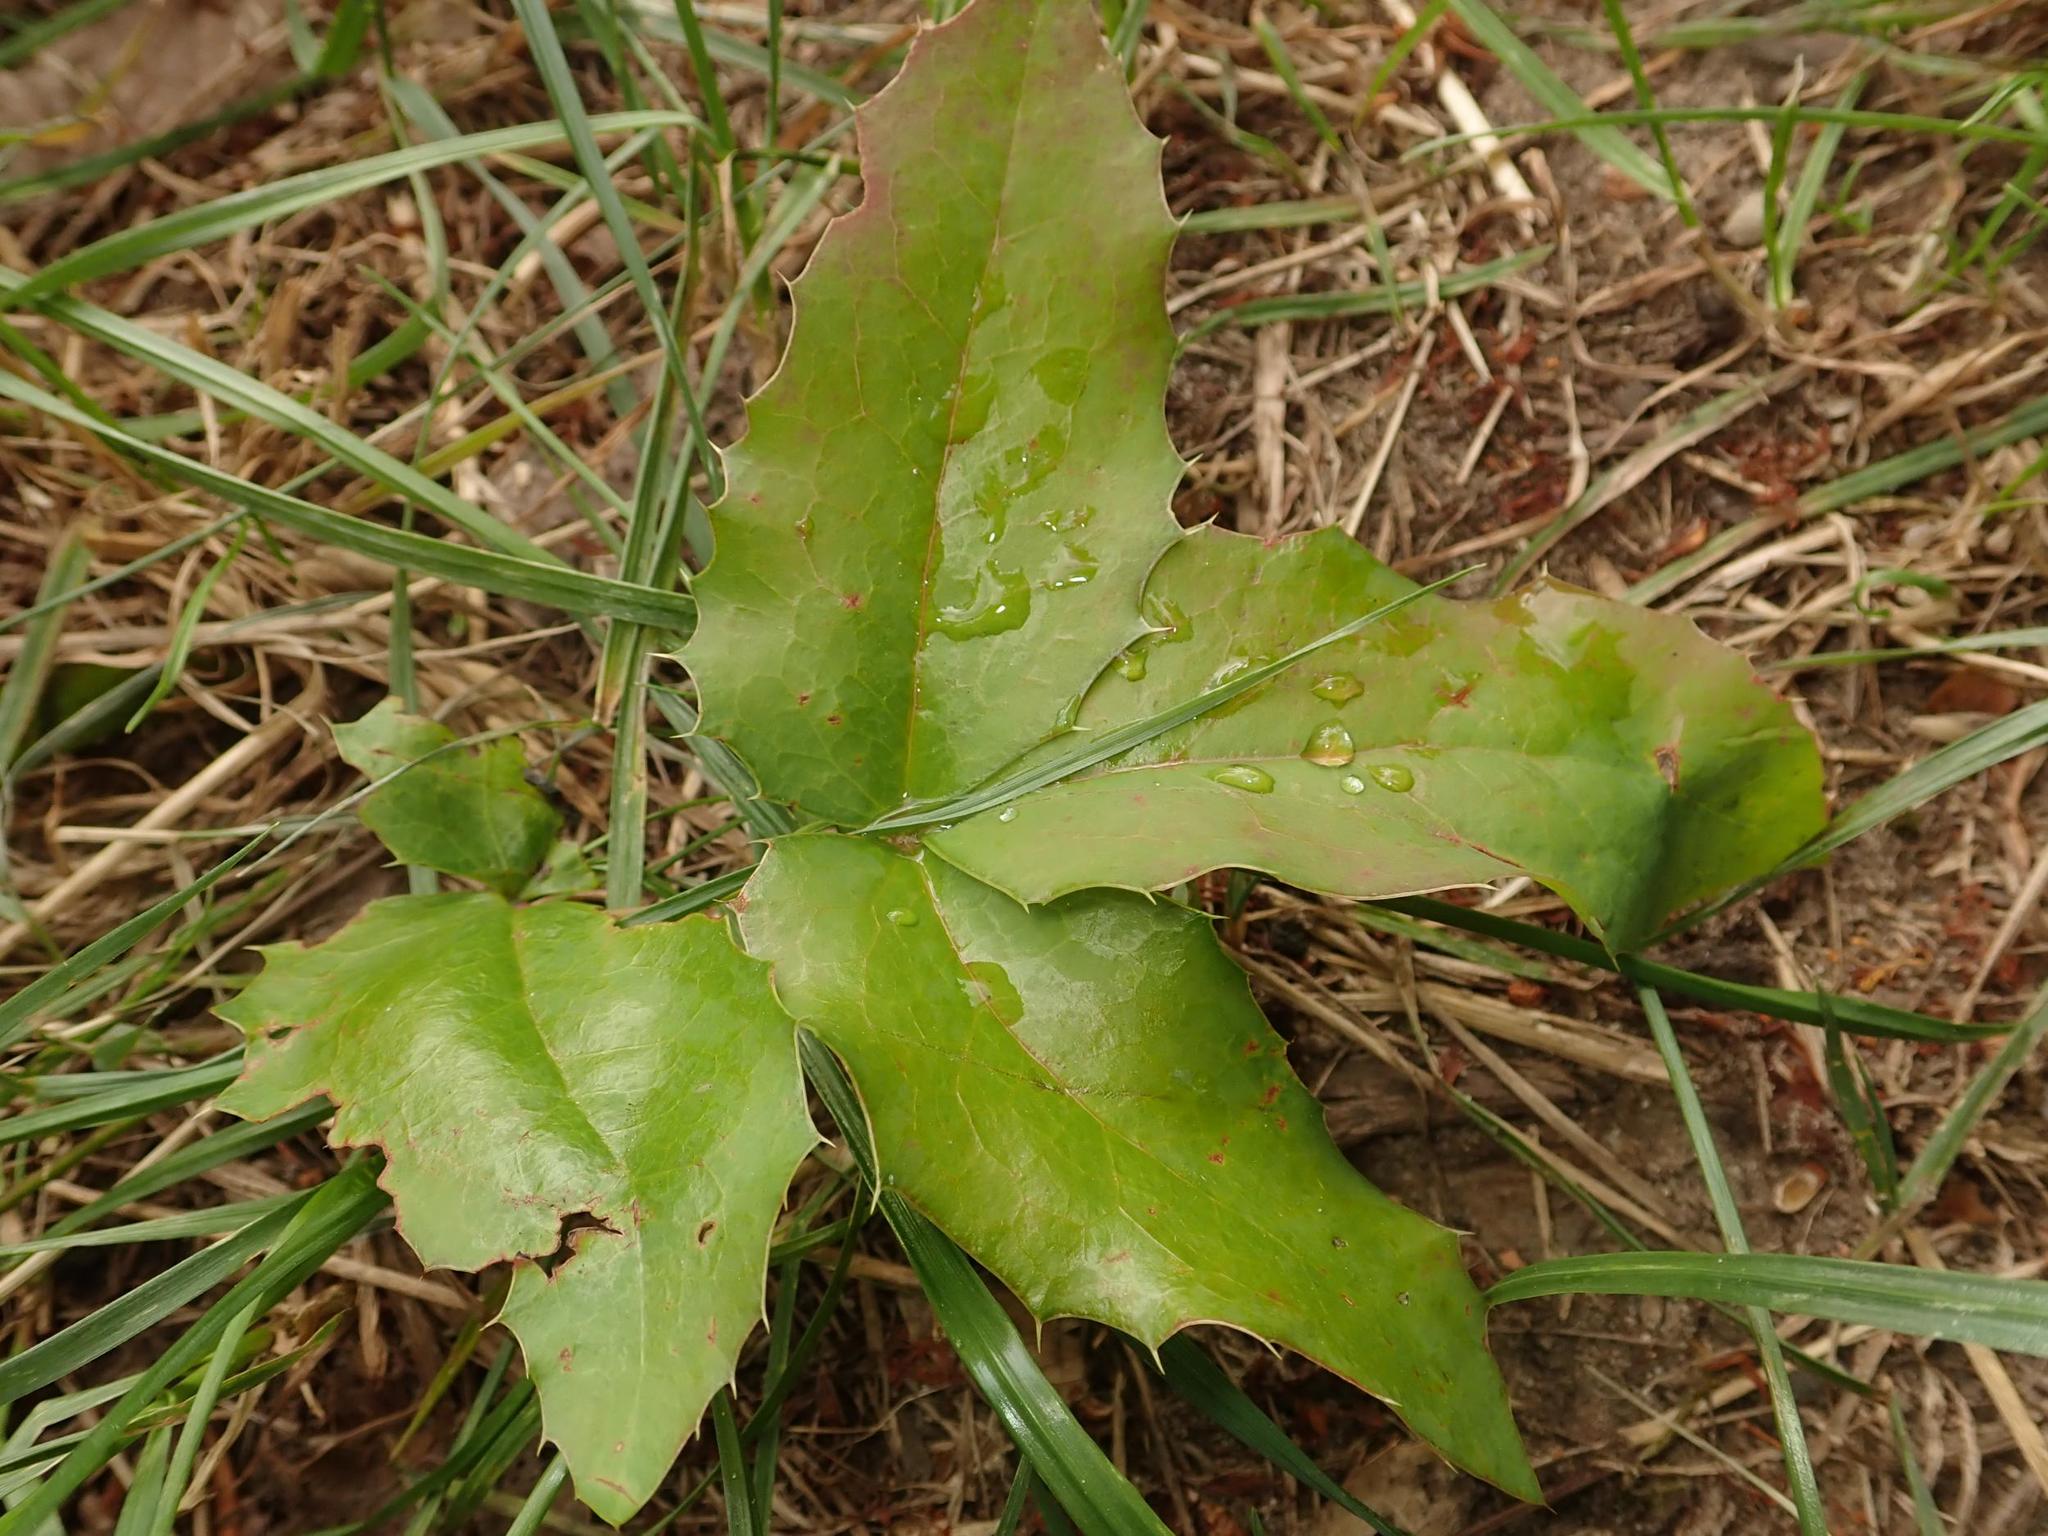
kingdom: Plantae
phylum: Tracheophyta
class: Magnoliopsida
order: Ranunculales
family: Berberidaceae
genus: Mahonia
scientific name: Mahonia aquifolium
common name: Oregon-grape
